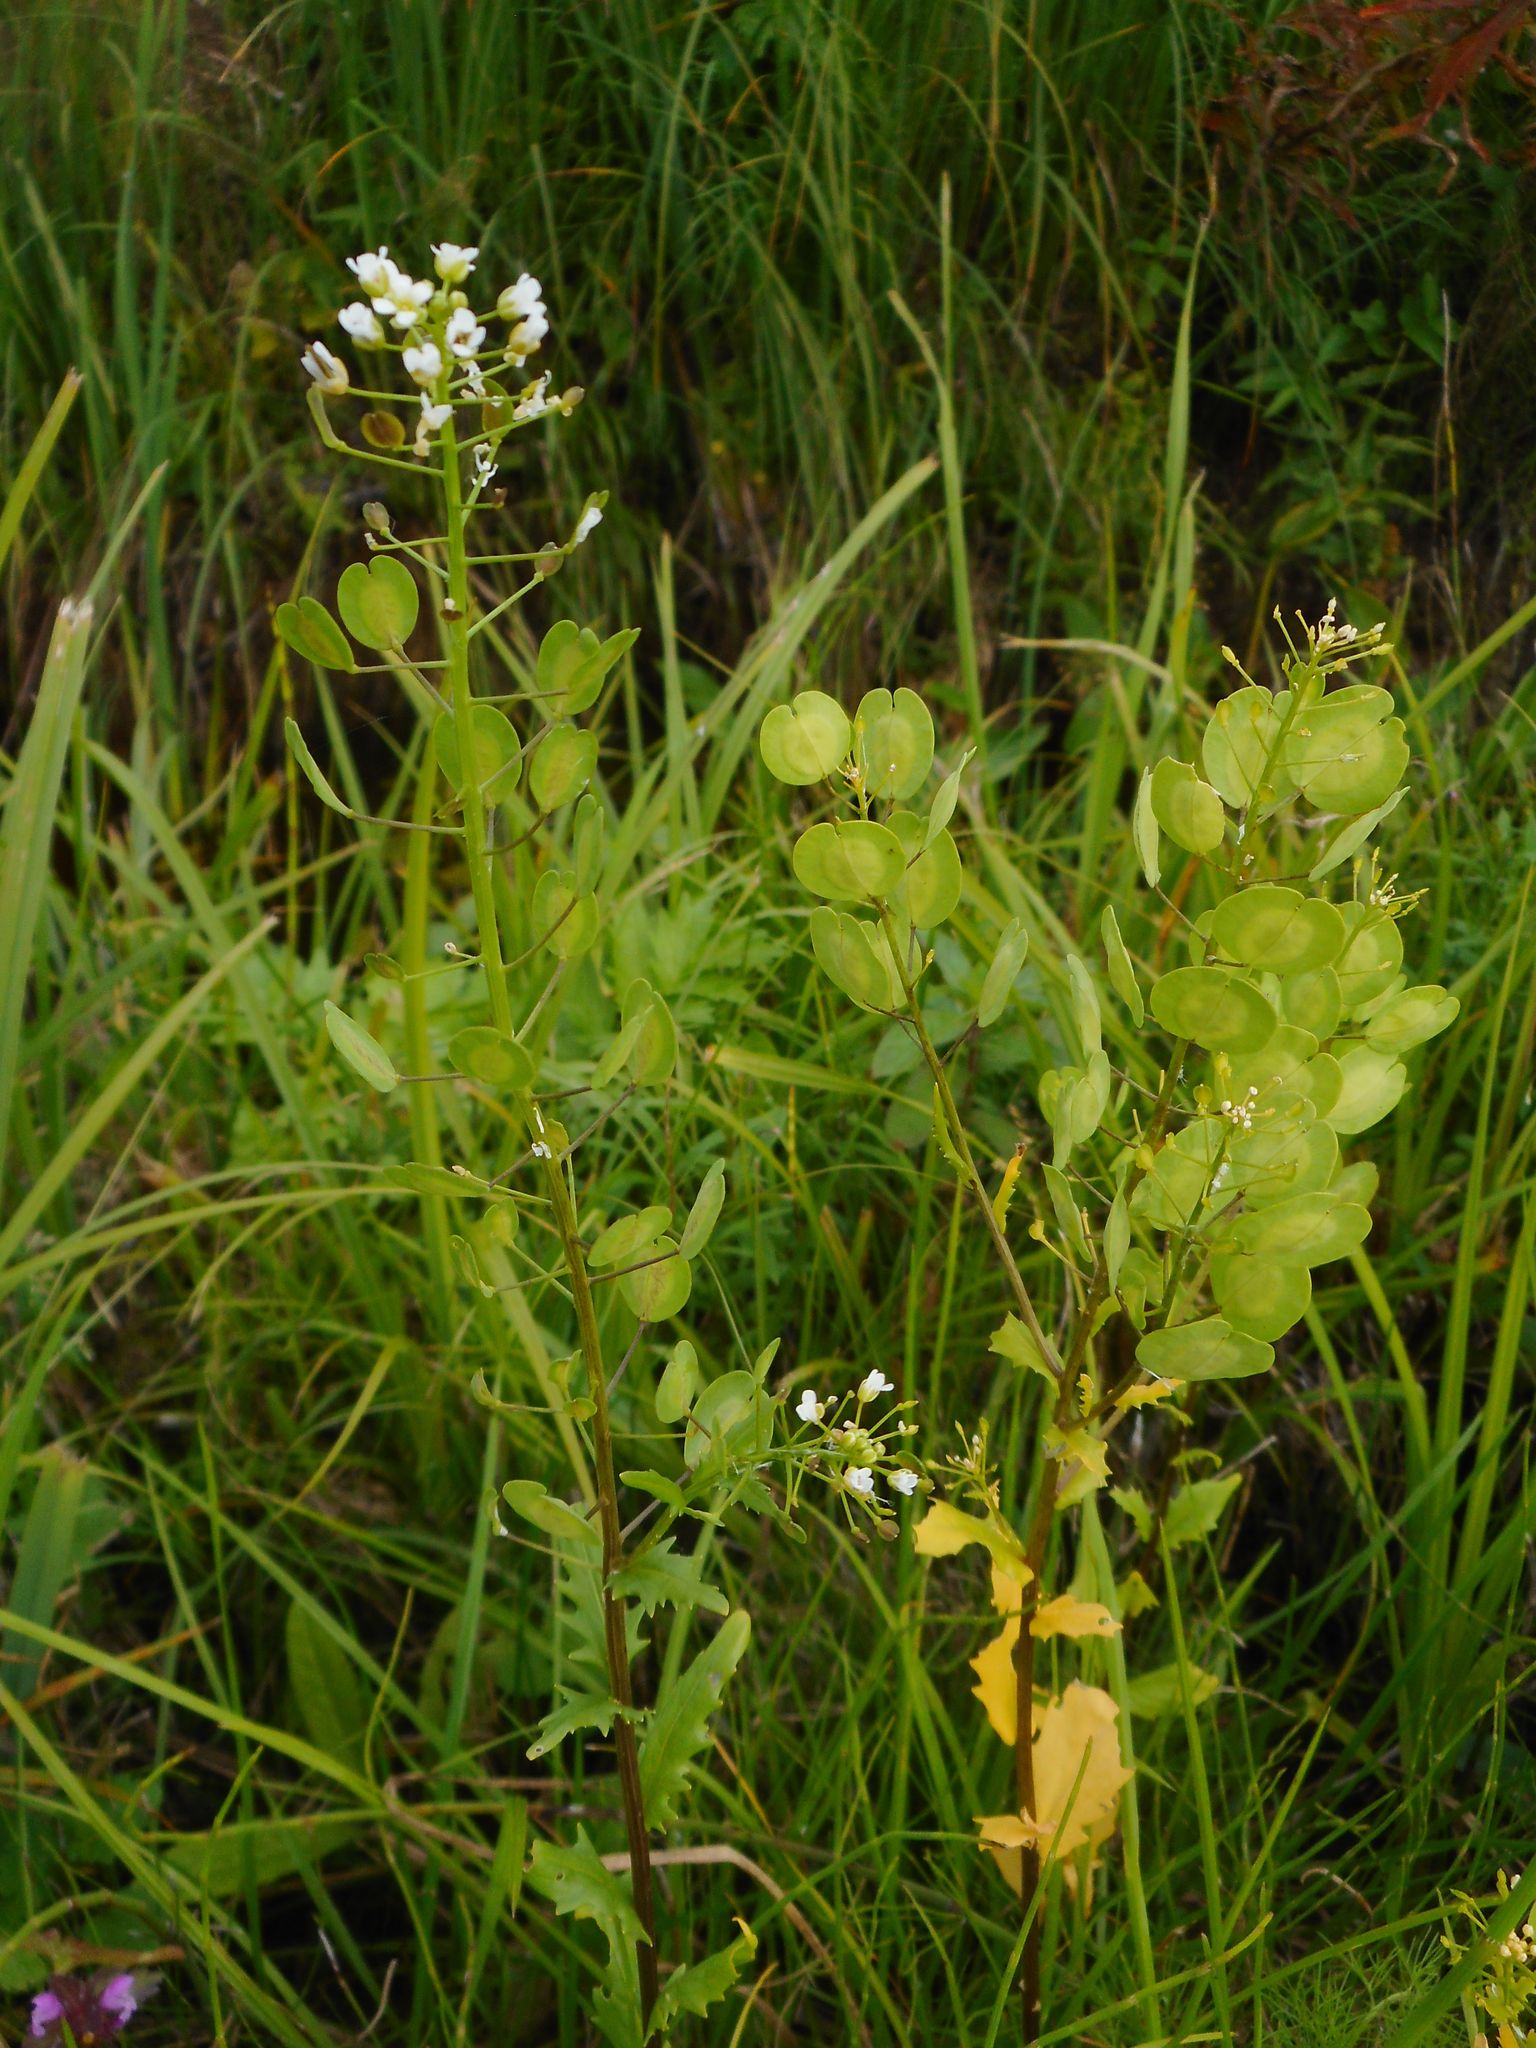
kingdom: Plantae
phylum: Tracheophyta
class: Magnoliopsida
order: Brassicales
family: Brassicaceae
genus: Thlaspi
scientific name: Thlaspi arvense
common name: Field pennycress
